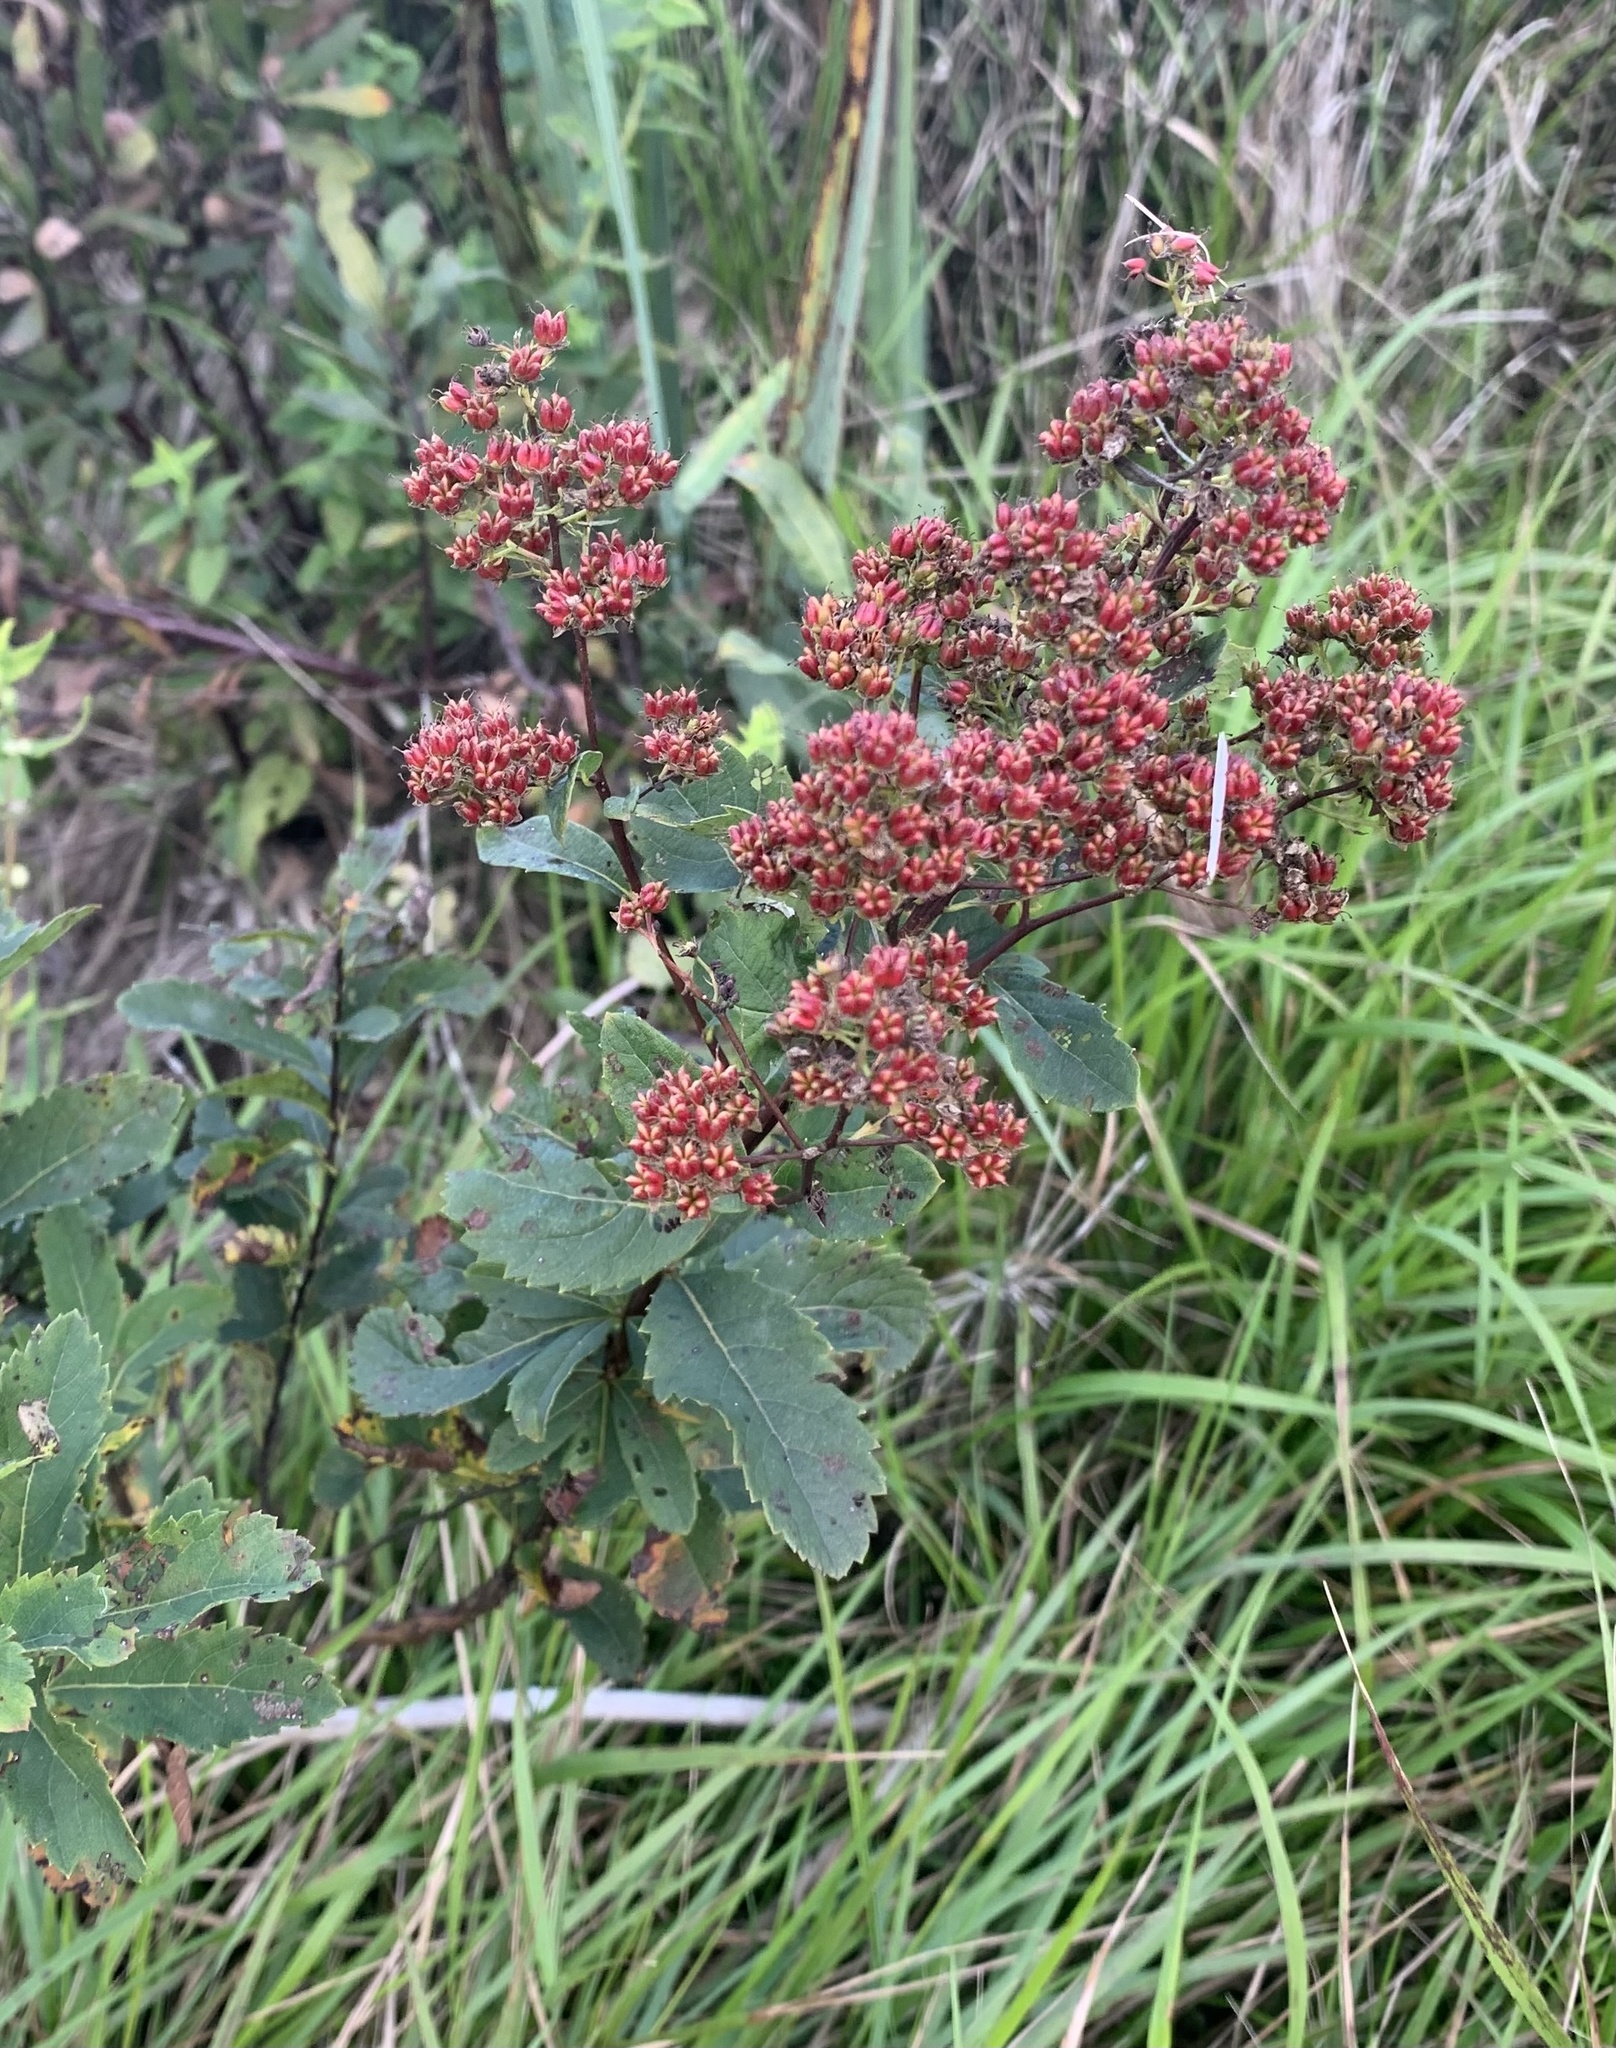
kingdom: Plantae
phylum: Tracheophyta
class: Magnoliopsida
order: Rosales
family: Rosaceae
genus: Spiraea
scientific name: Spiraea alba
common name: Pale bridewort
